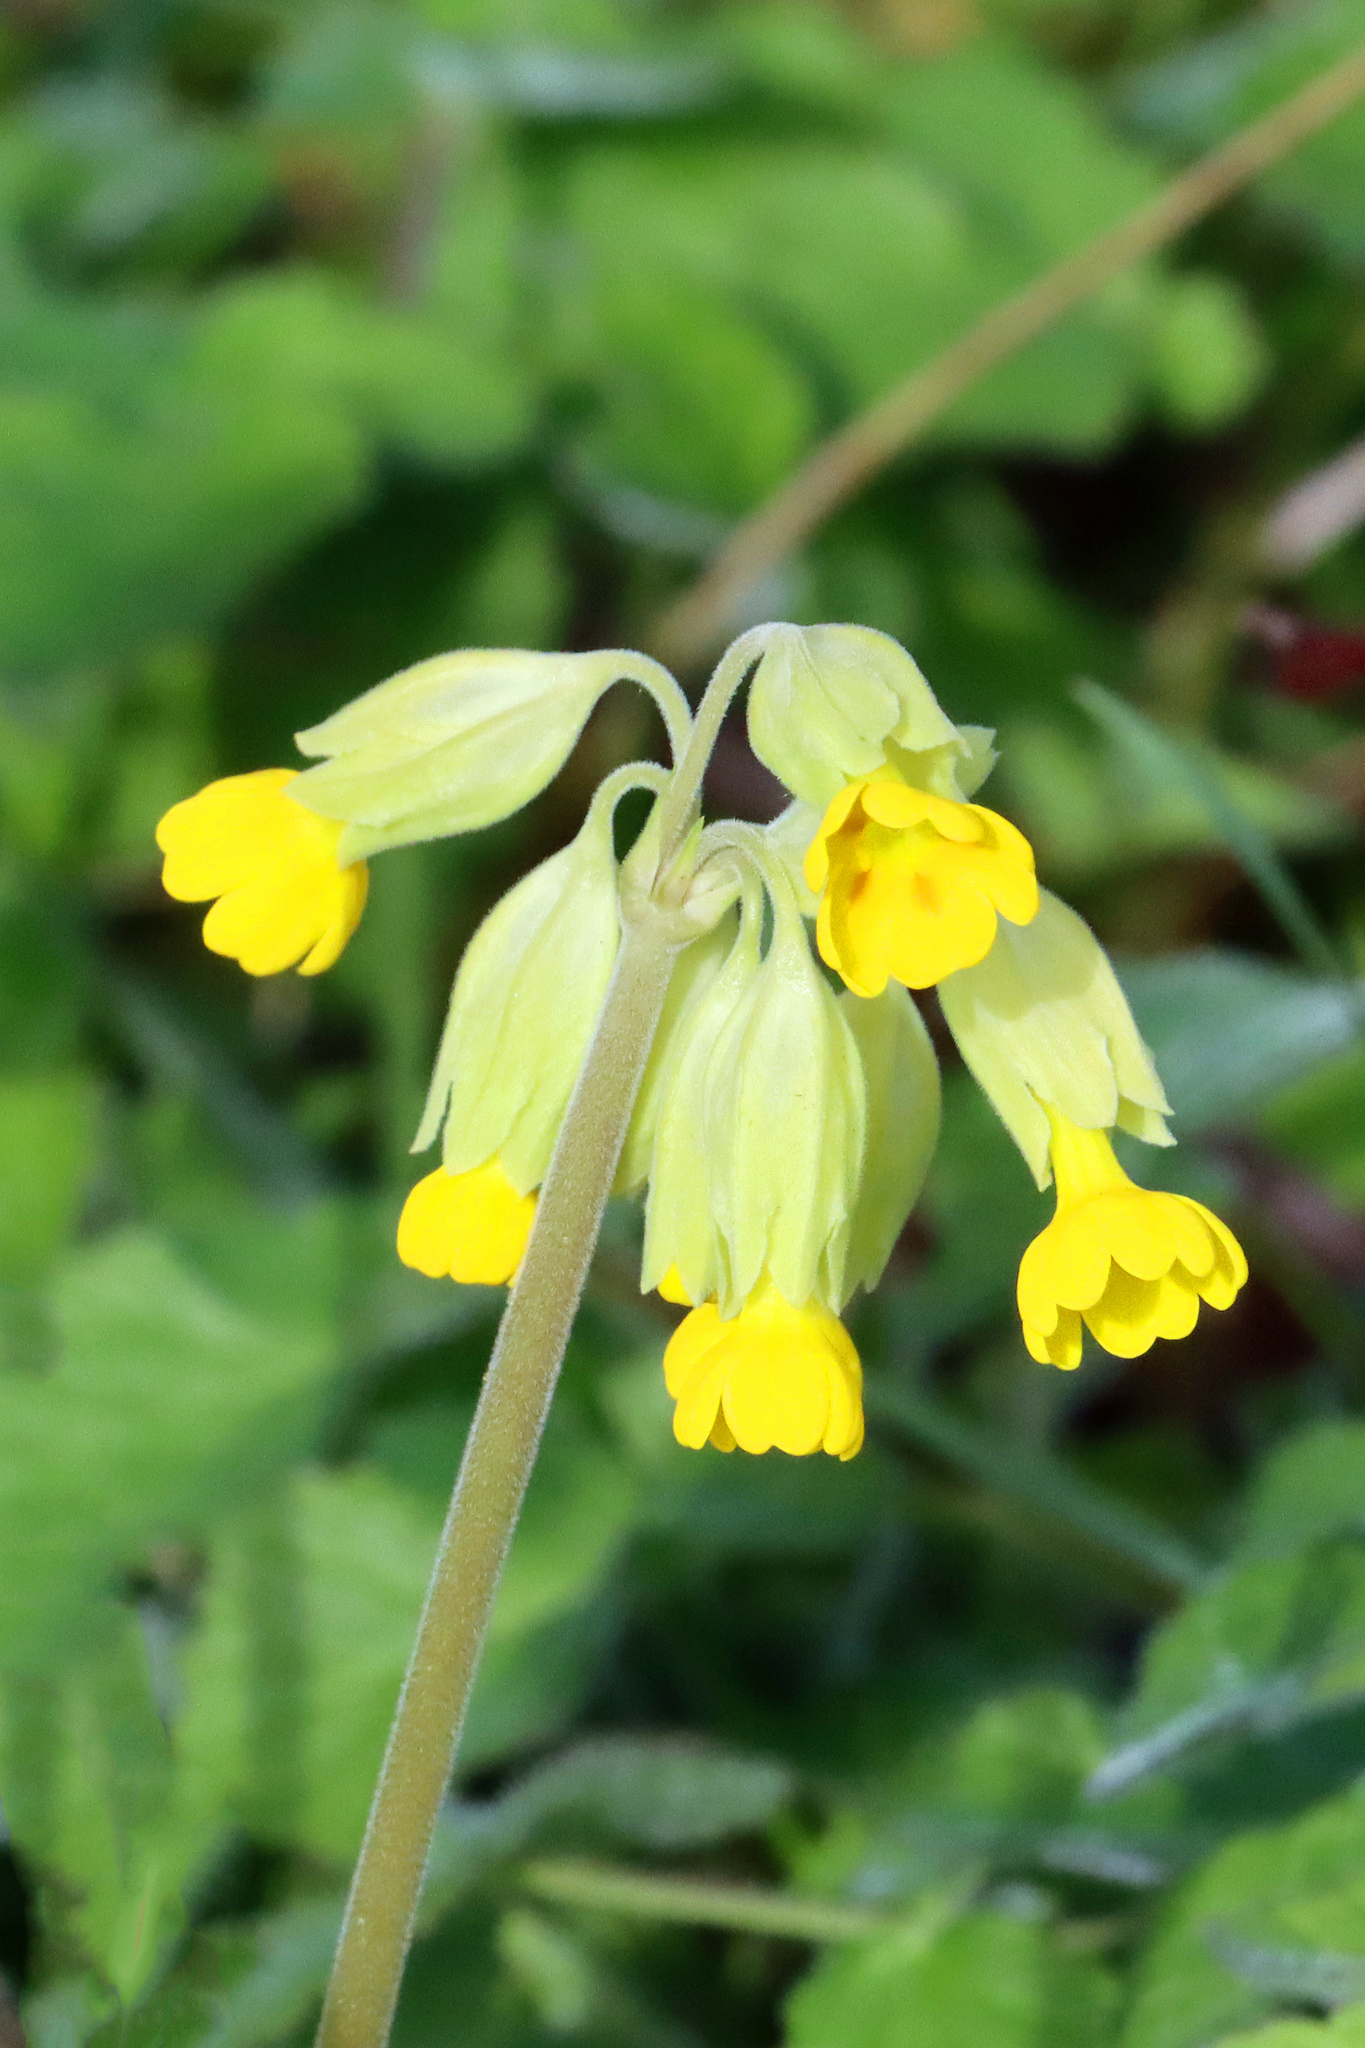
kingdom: Plantae
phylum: Tracheophyta
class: Magnoliopsida
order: Ericales
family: Primulaceae
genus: Primula
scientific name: Primula veris
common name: Cowslip
